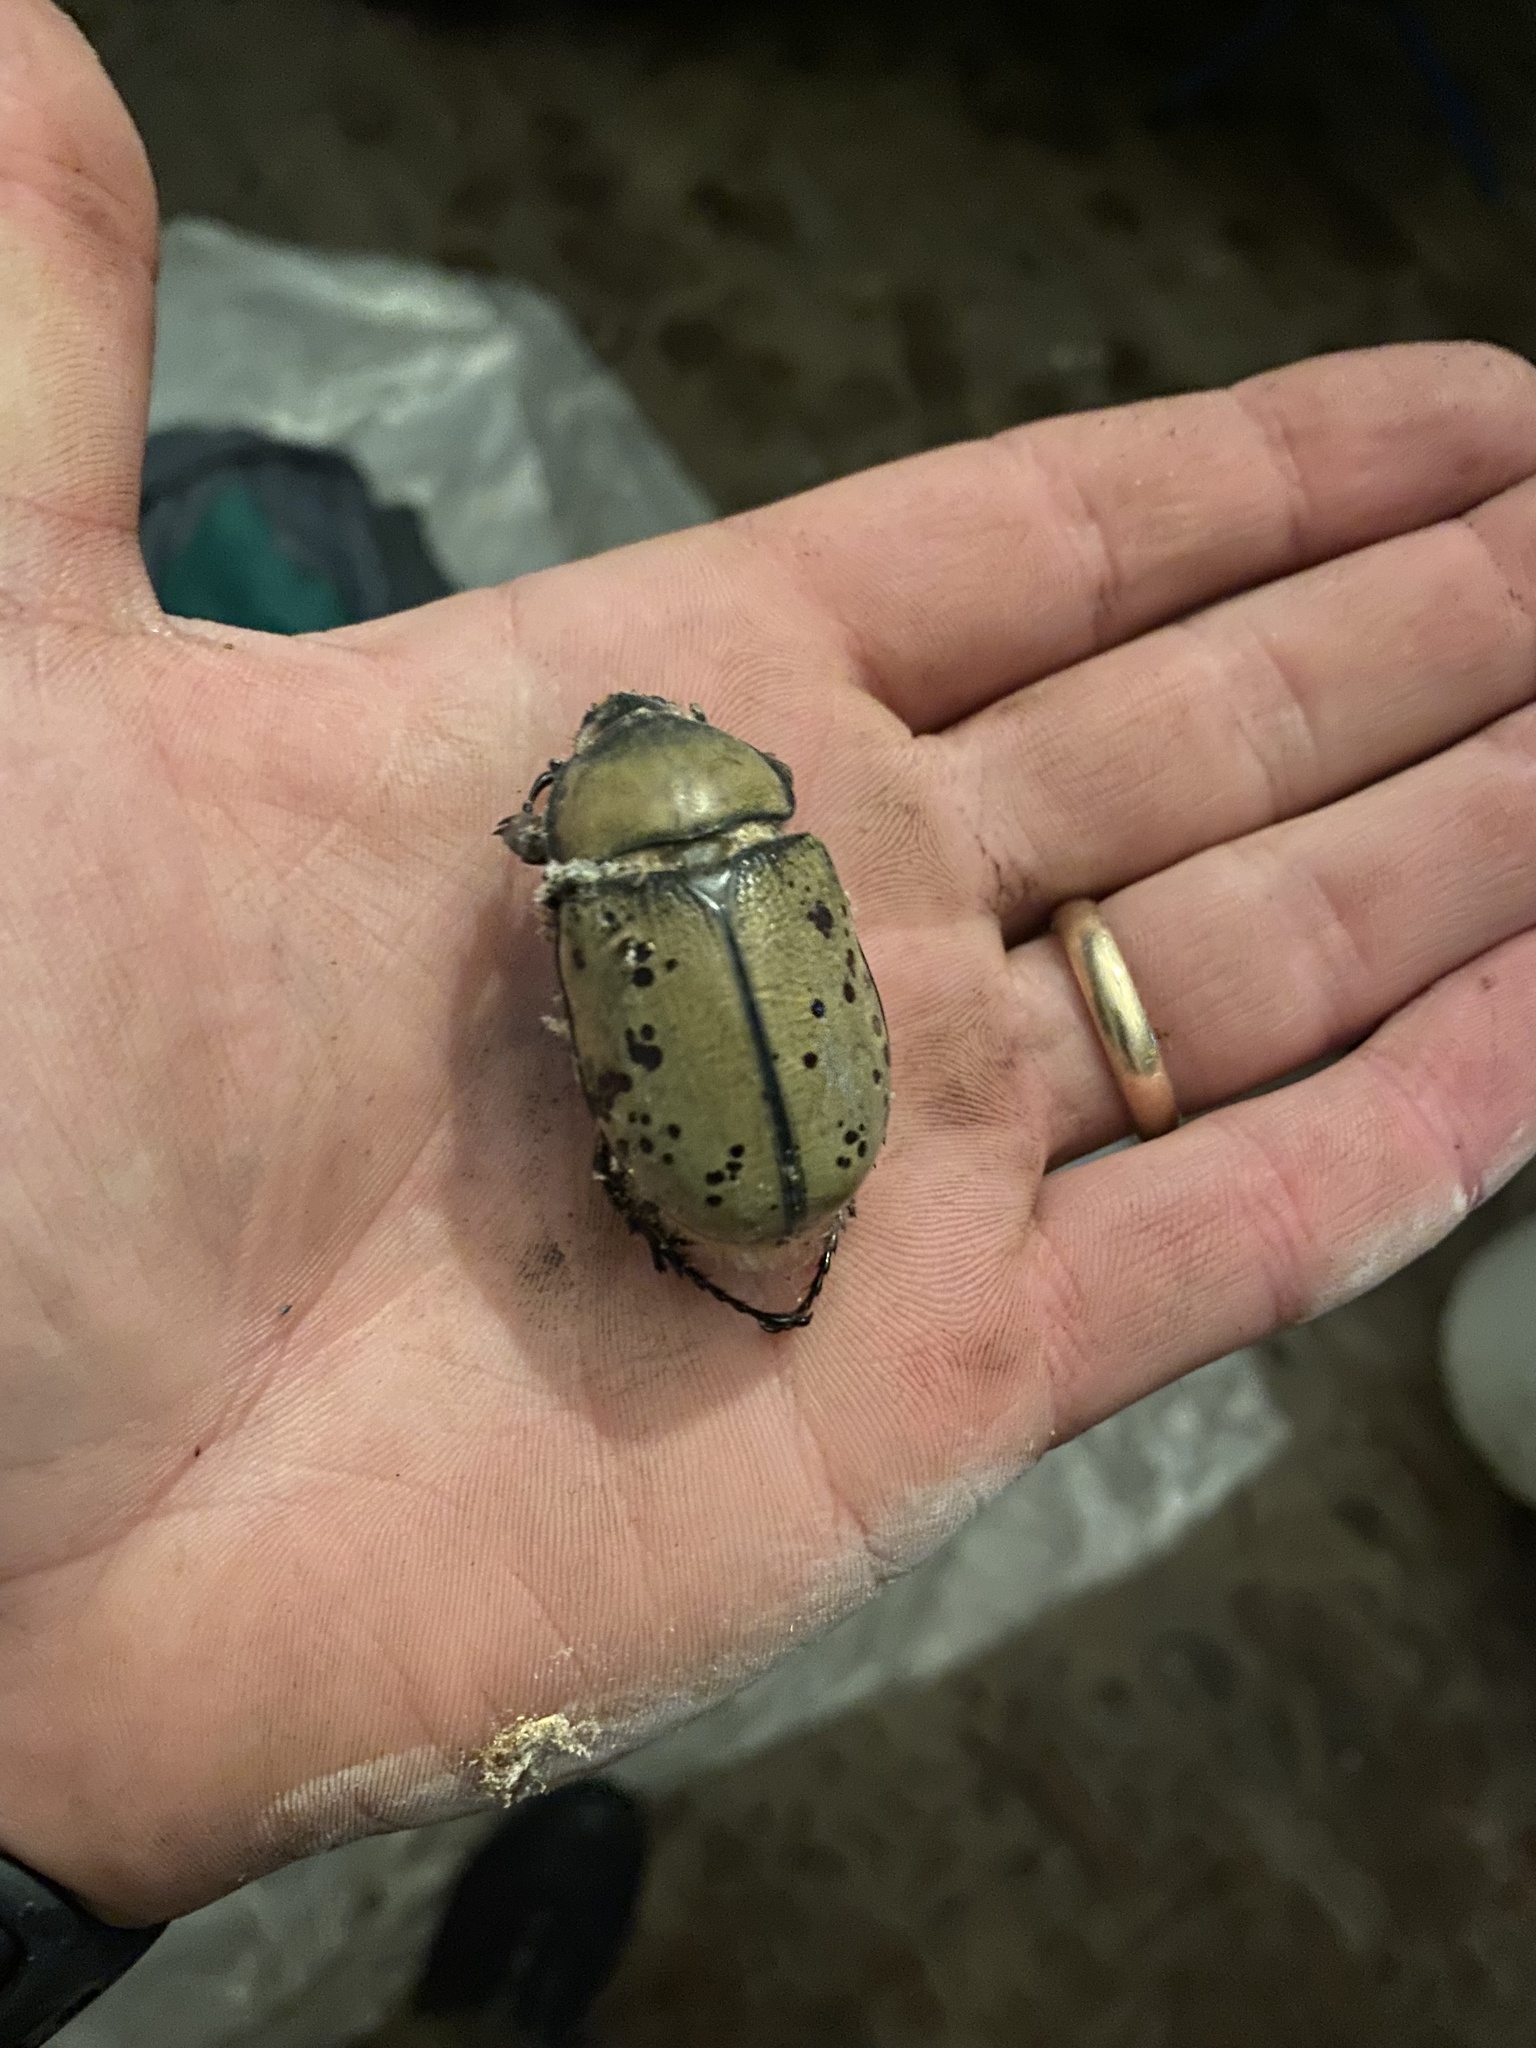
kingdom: Animalia
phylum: Arthropoda
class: Insecta
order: Coleoptera
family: Scarabaeidae
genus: Dynastes
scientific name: Dynastes tityus
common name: Eastern hercules beetle
